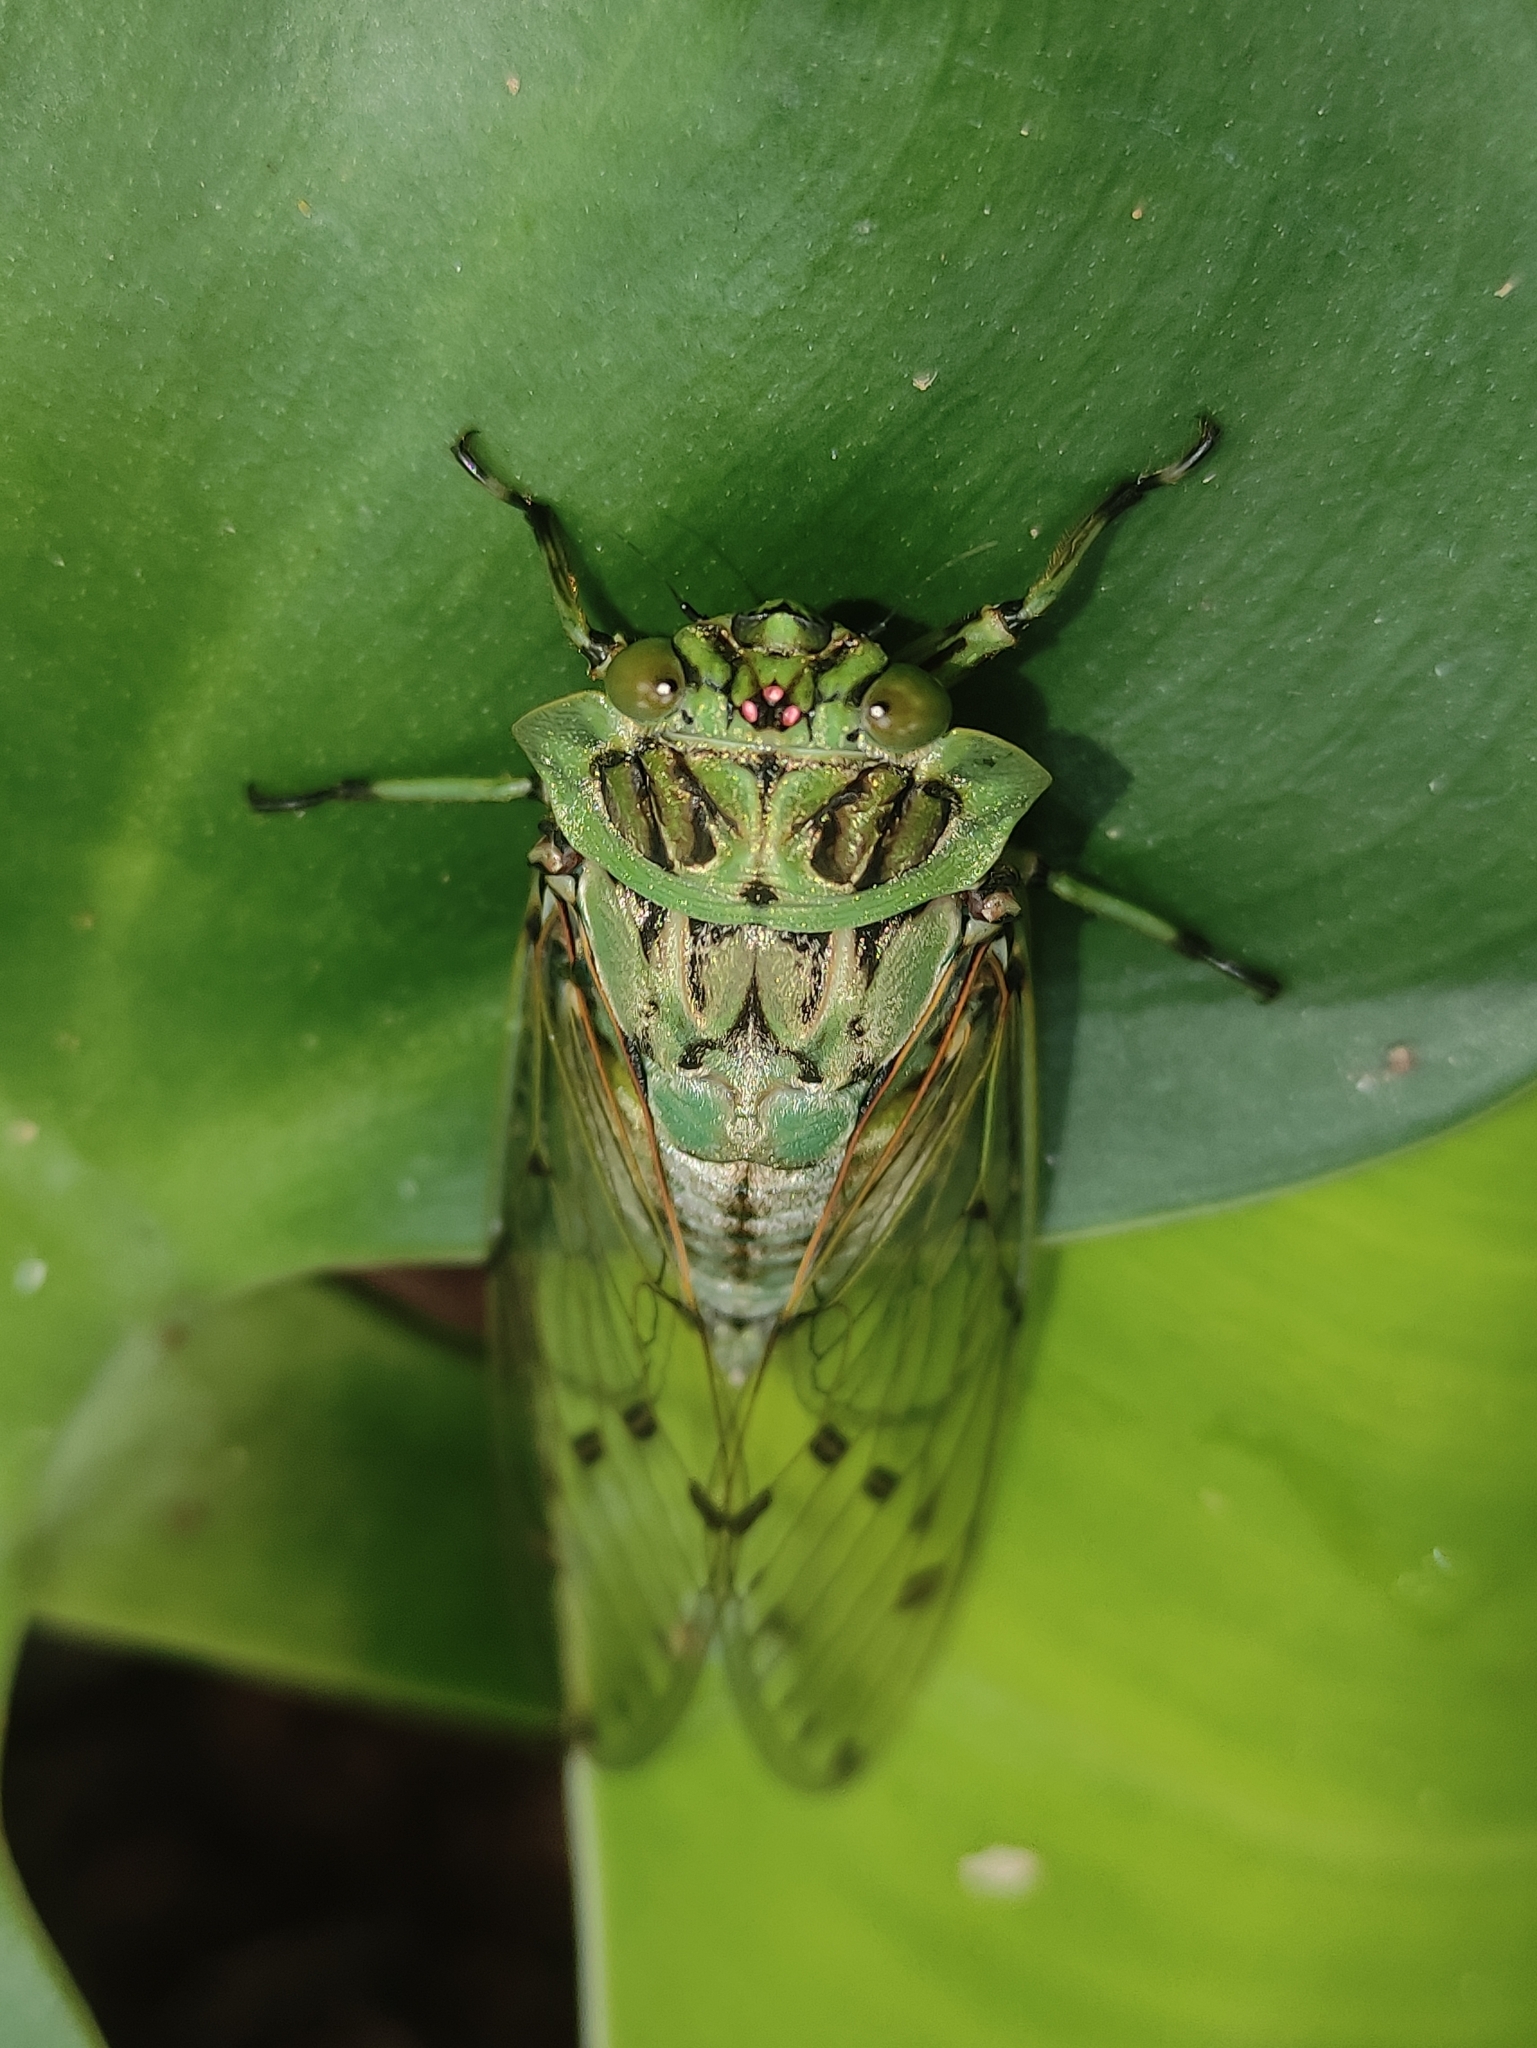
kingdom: Animalia
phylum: Arthropoda
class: Insecta
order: Hemiptera
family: Cicadidae
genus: Zammara
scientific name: Zammara tympanum
